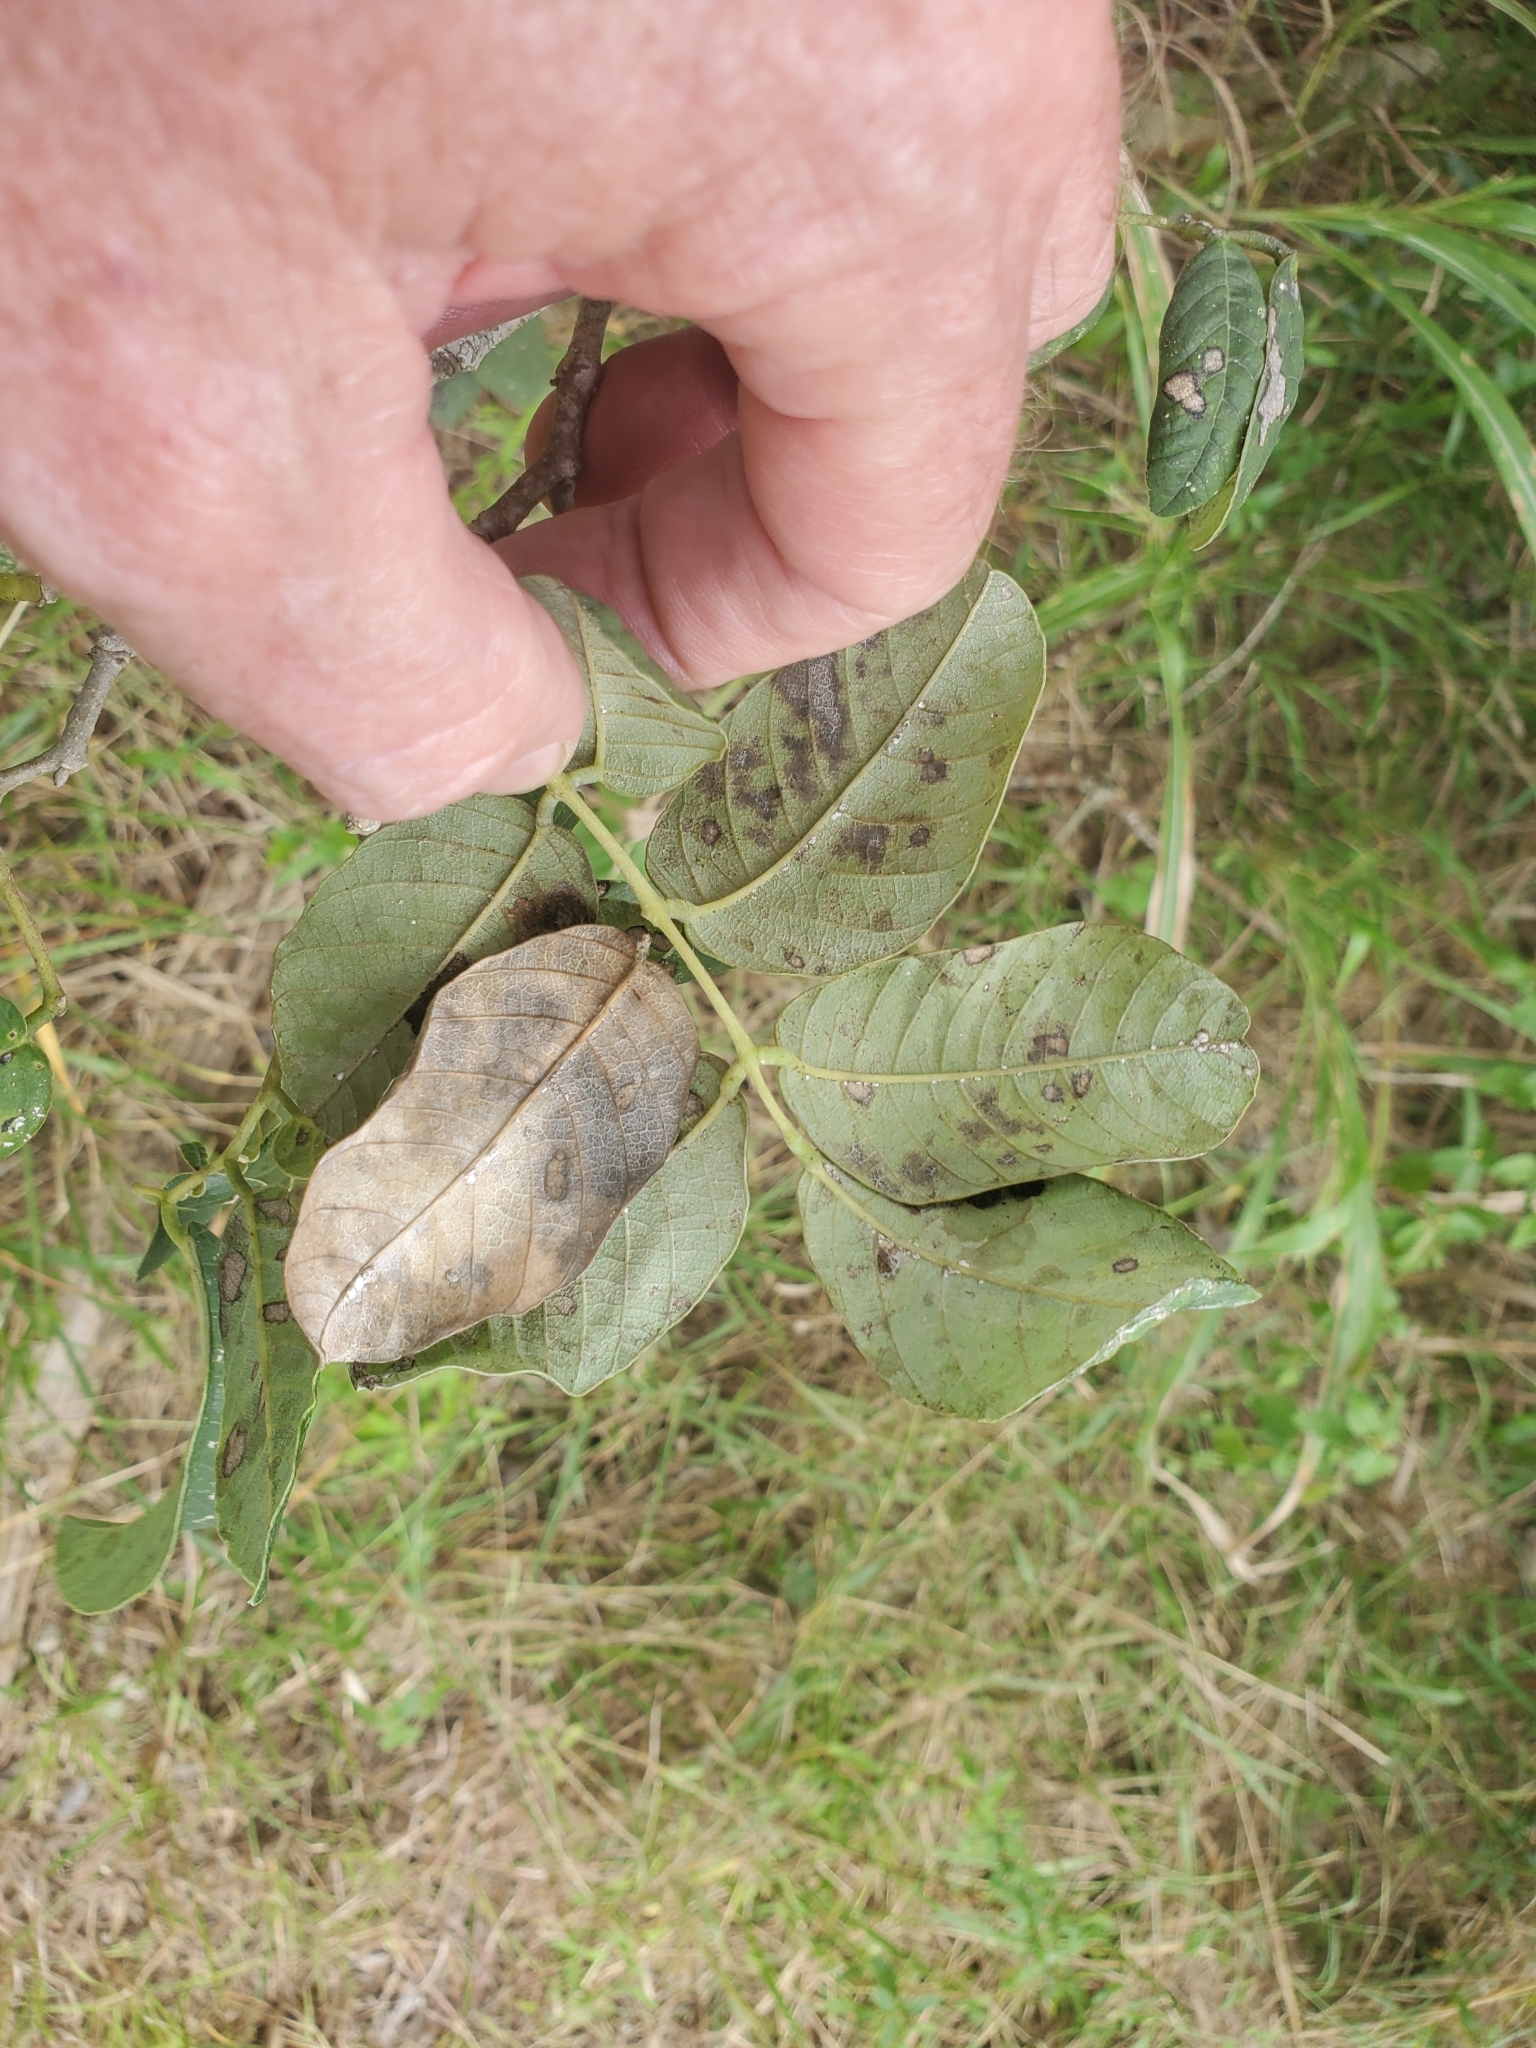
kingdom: Plantae
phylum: Tracheophyta
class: Magnoliopsida
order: Fabales
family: Fabaceae
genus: Piscidia
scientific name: Piscidia piscipula
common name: Florida fishpoison tree
